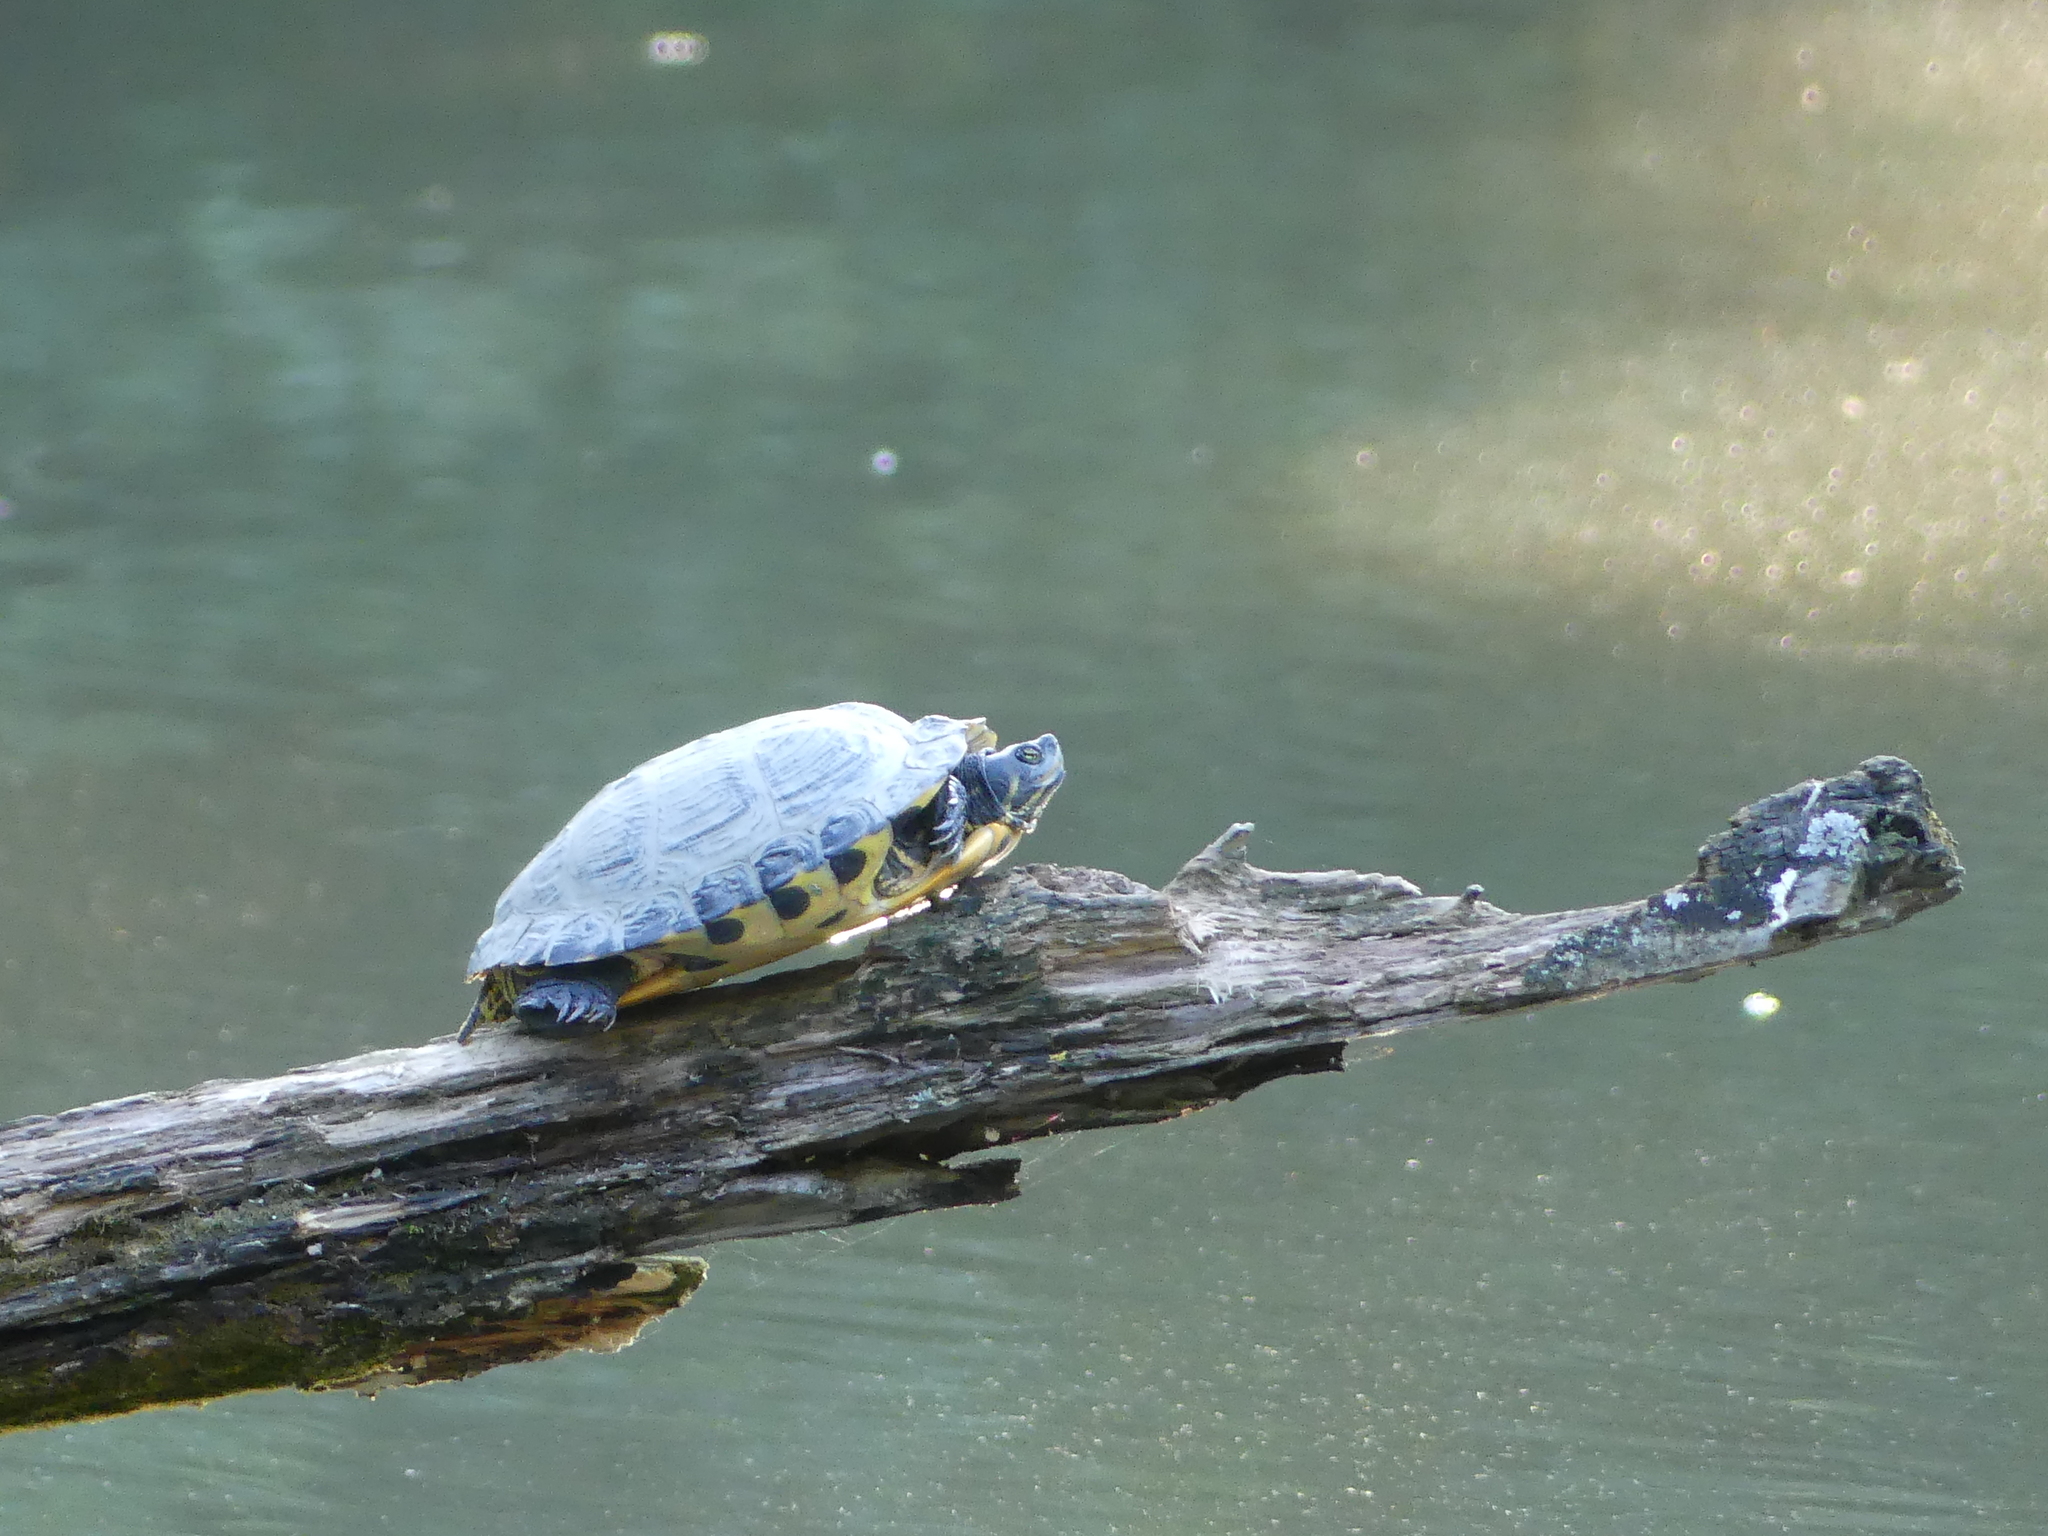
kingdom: Animalia
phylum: Chordata
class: Testudines
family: Emydidae
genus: Trachemys
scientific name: Trachemys scripta
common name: Slider
